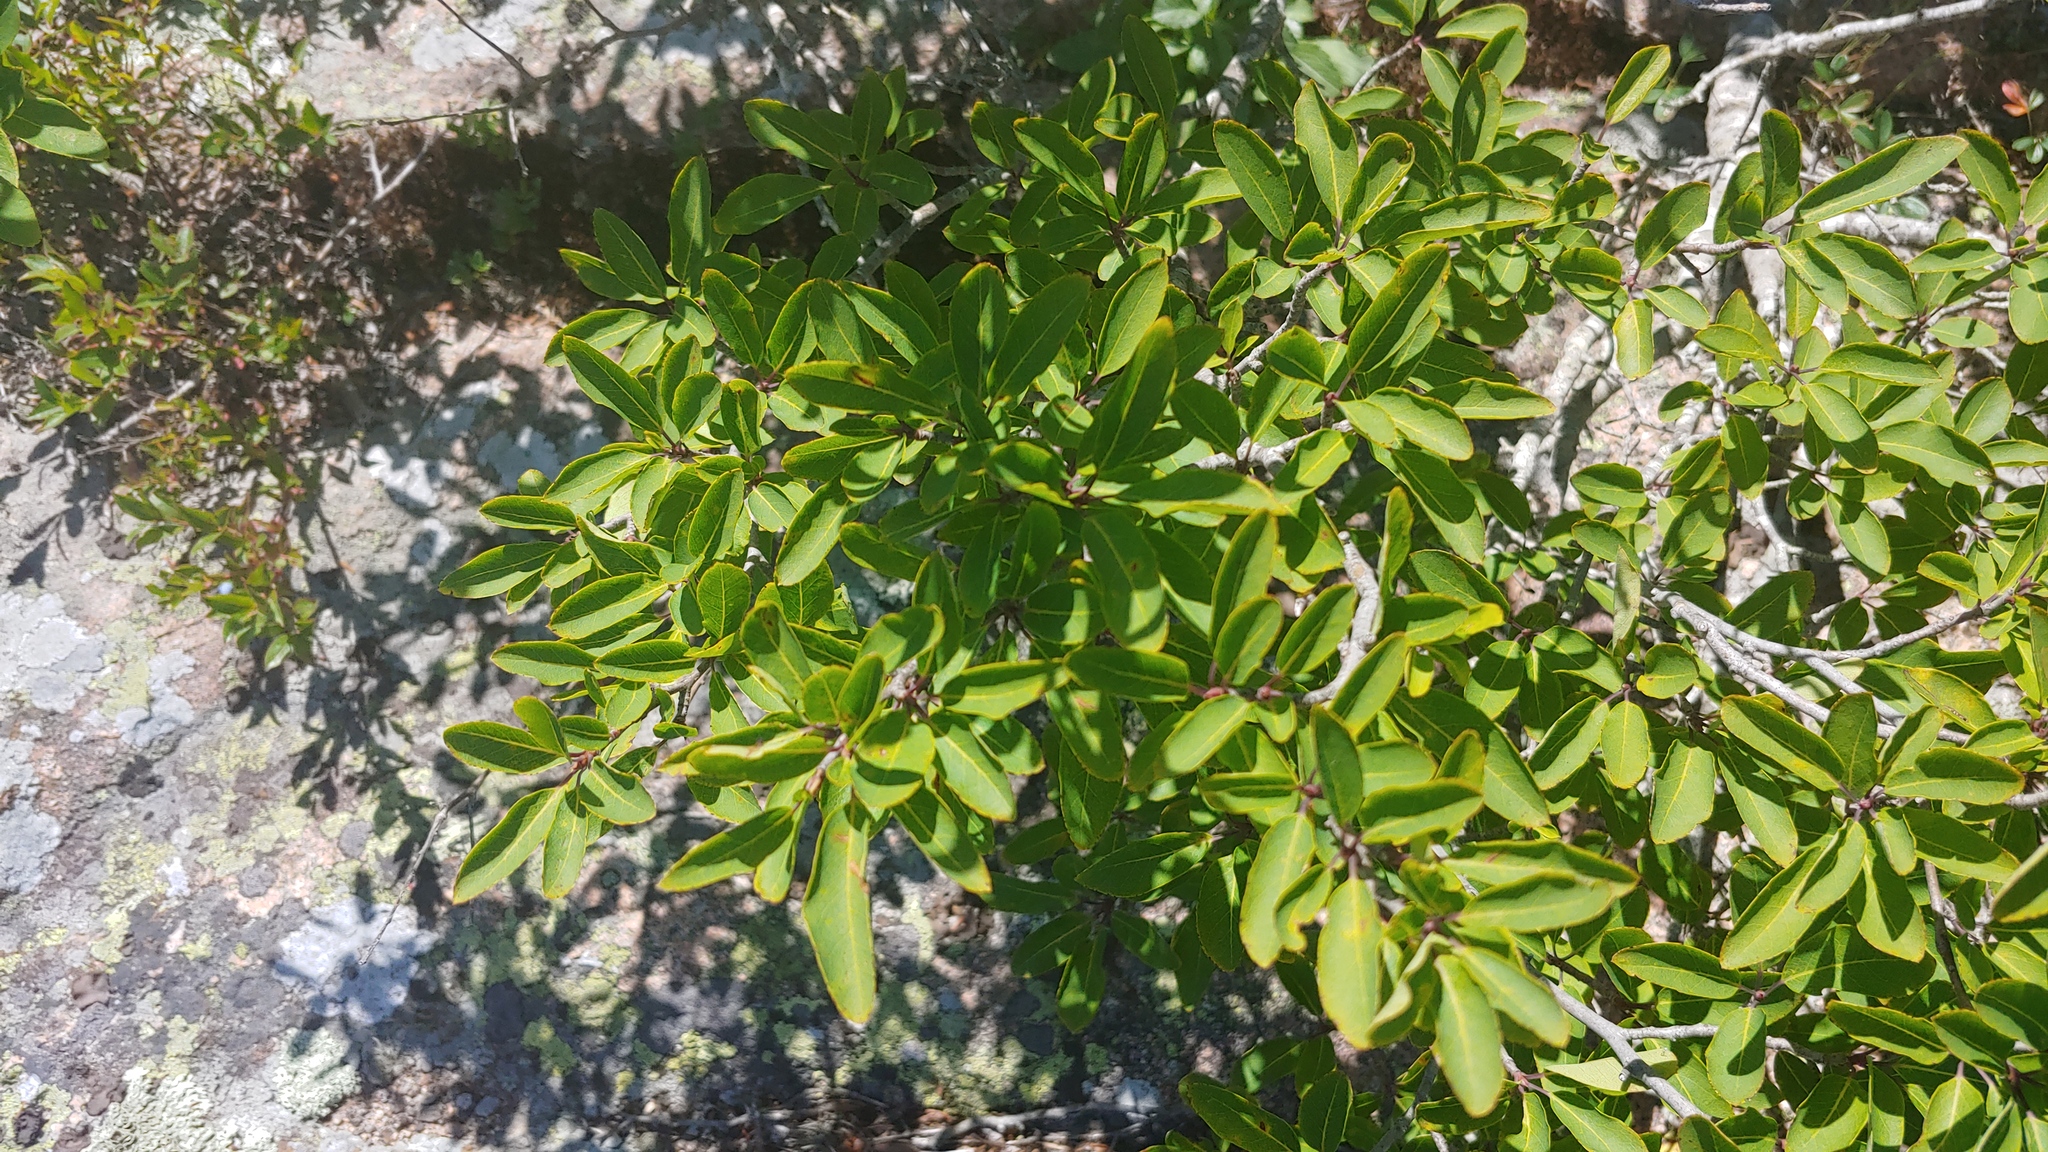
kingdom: Plantae
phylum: Tracheophyta
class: Magnoliopsida
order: Aquifoliales
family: Aquifoliaceae
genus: Ilex
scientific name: Ilex mucronata
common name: Catberry
